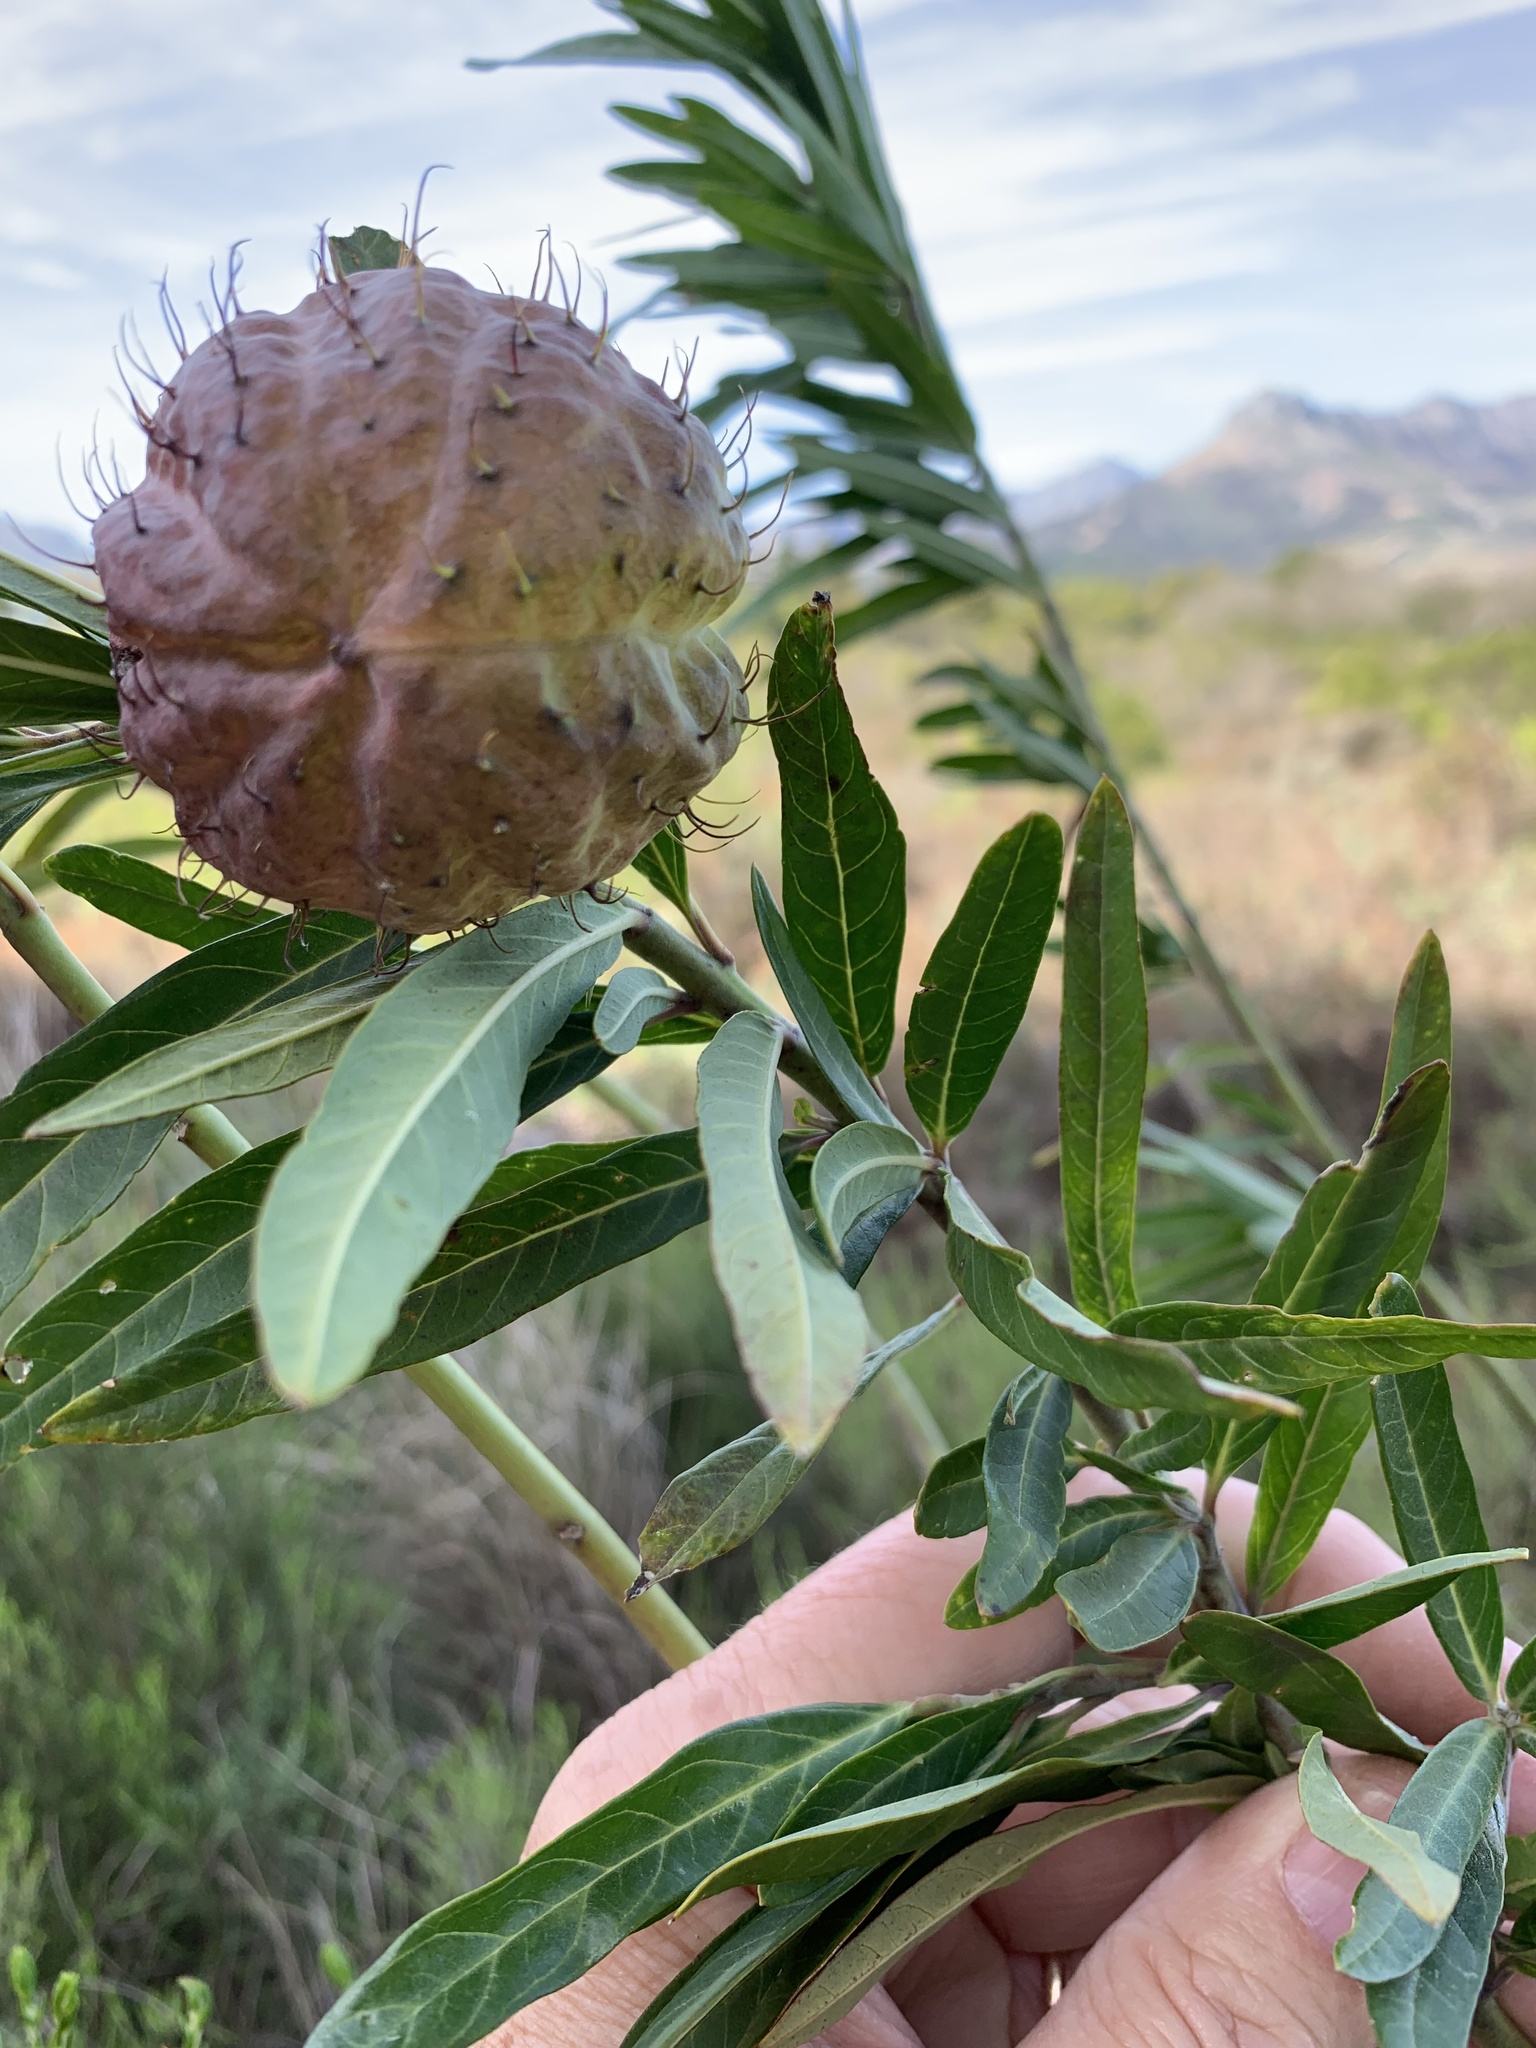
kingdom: Plantae
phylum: Tracheophyta
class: Magnoliopsida
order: Gentianales
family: Apocynaceae
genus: Gomphocarpus
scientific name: Gomphocarpus physocarpus
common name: Balloon cotton bush
